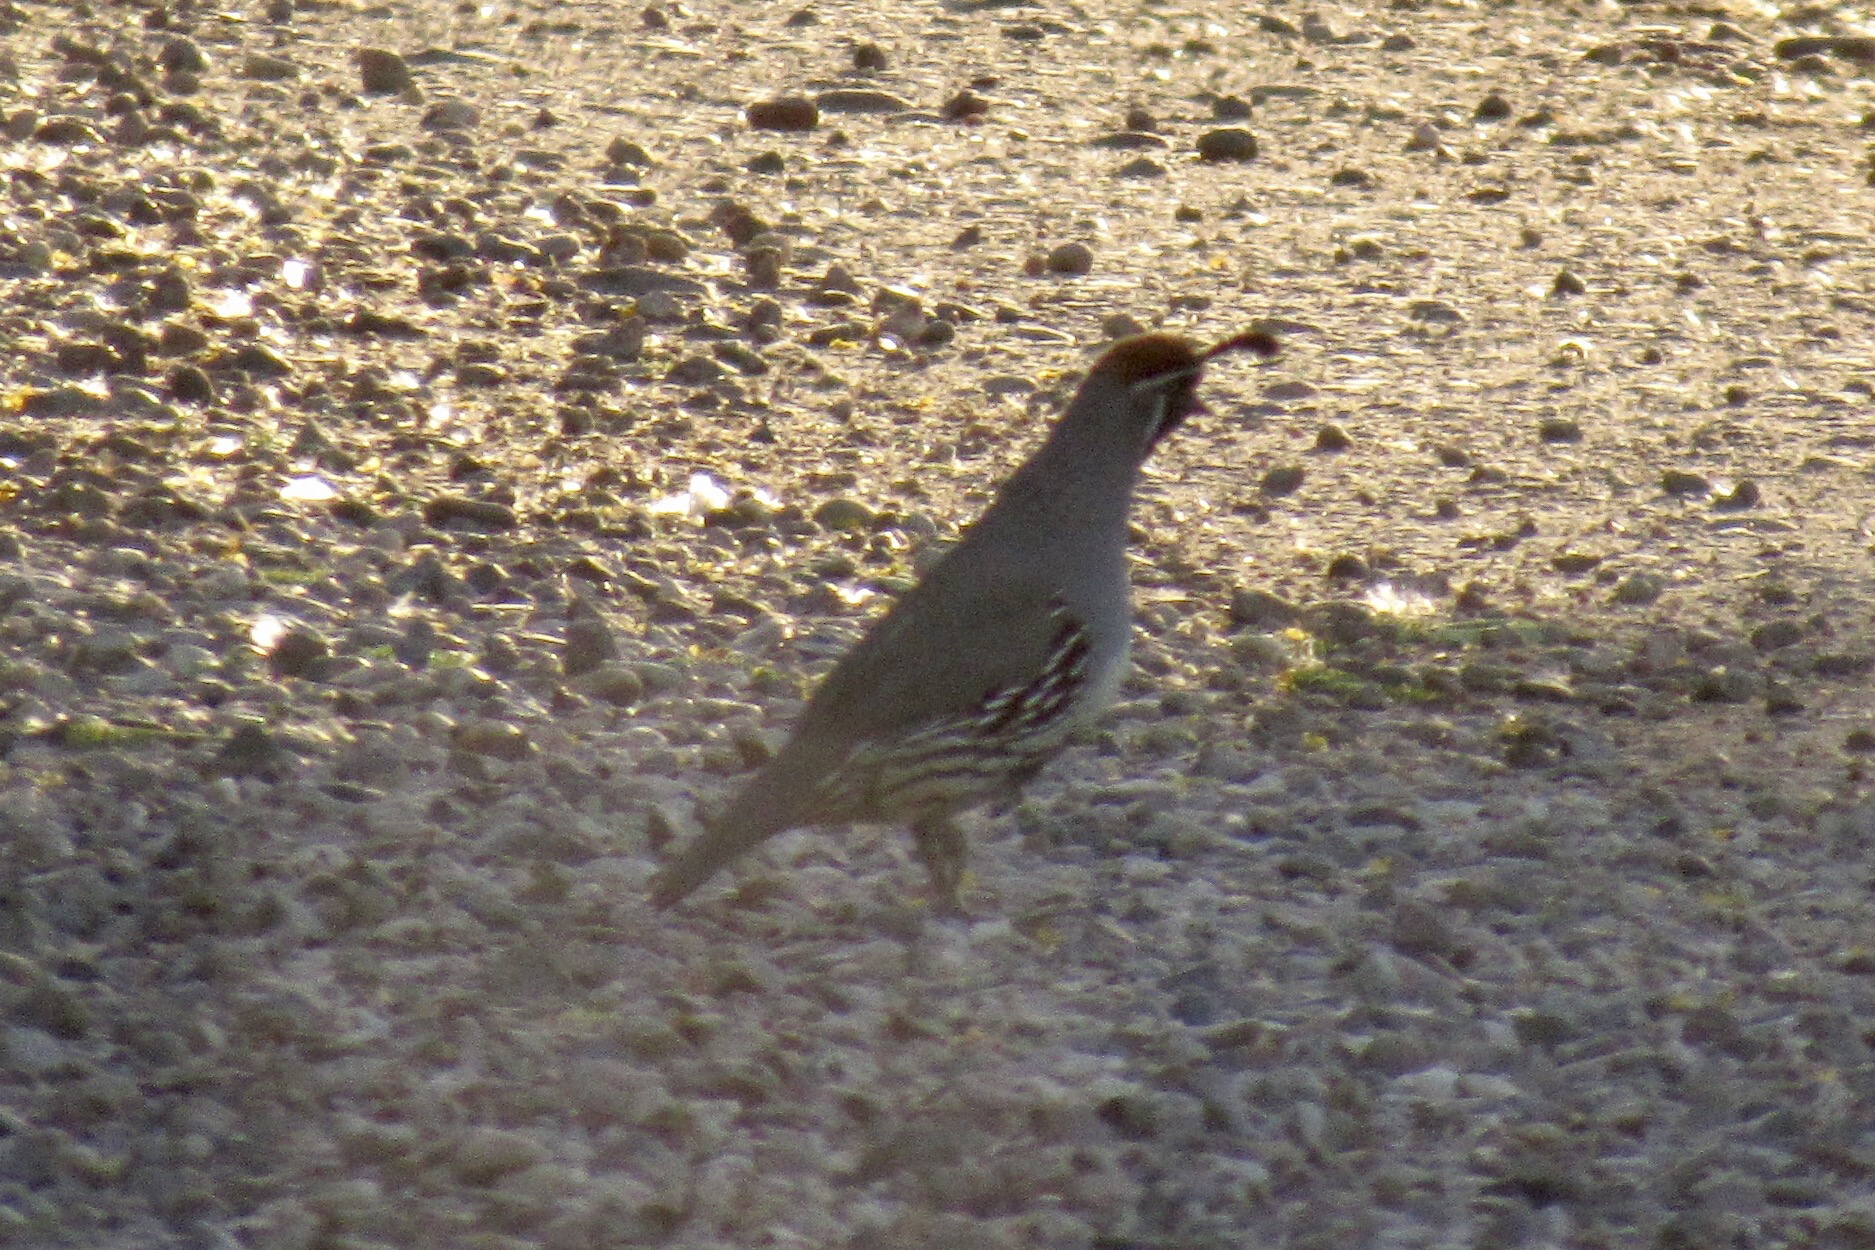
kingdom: Animalia
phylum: Chordata
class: Aves
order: Galliformes
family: Odontophoridae
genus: Callipepla
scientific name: Callipepla gambelii
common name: Gambel's quail
